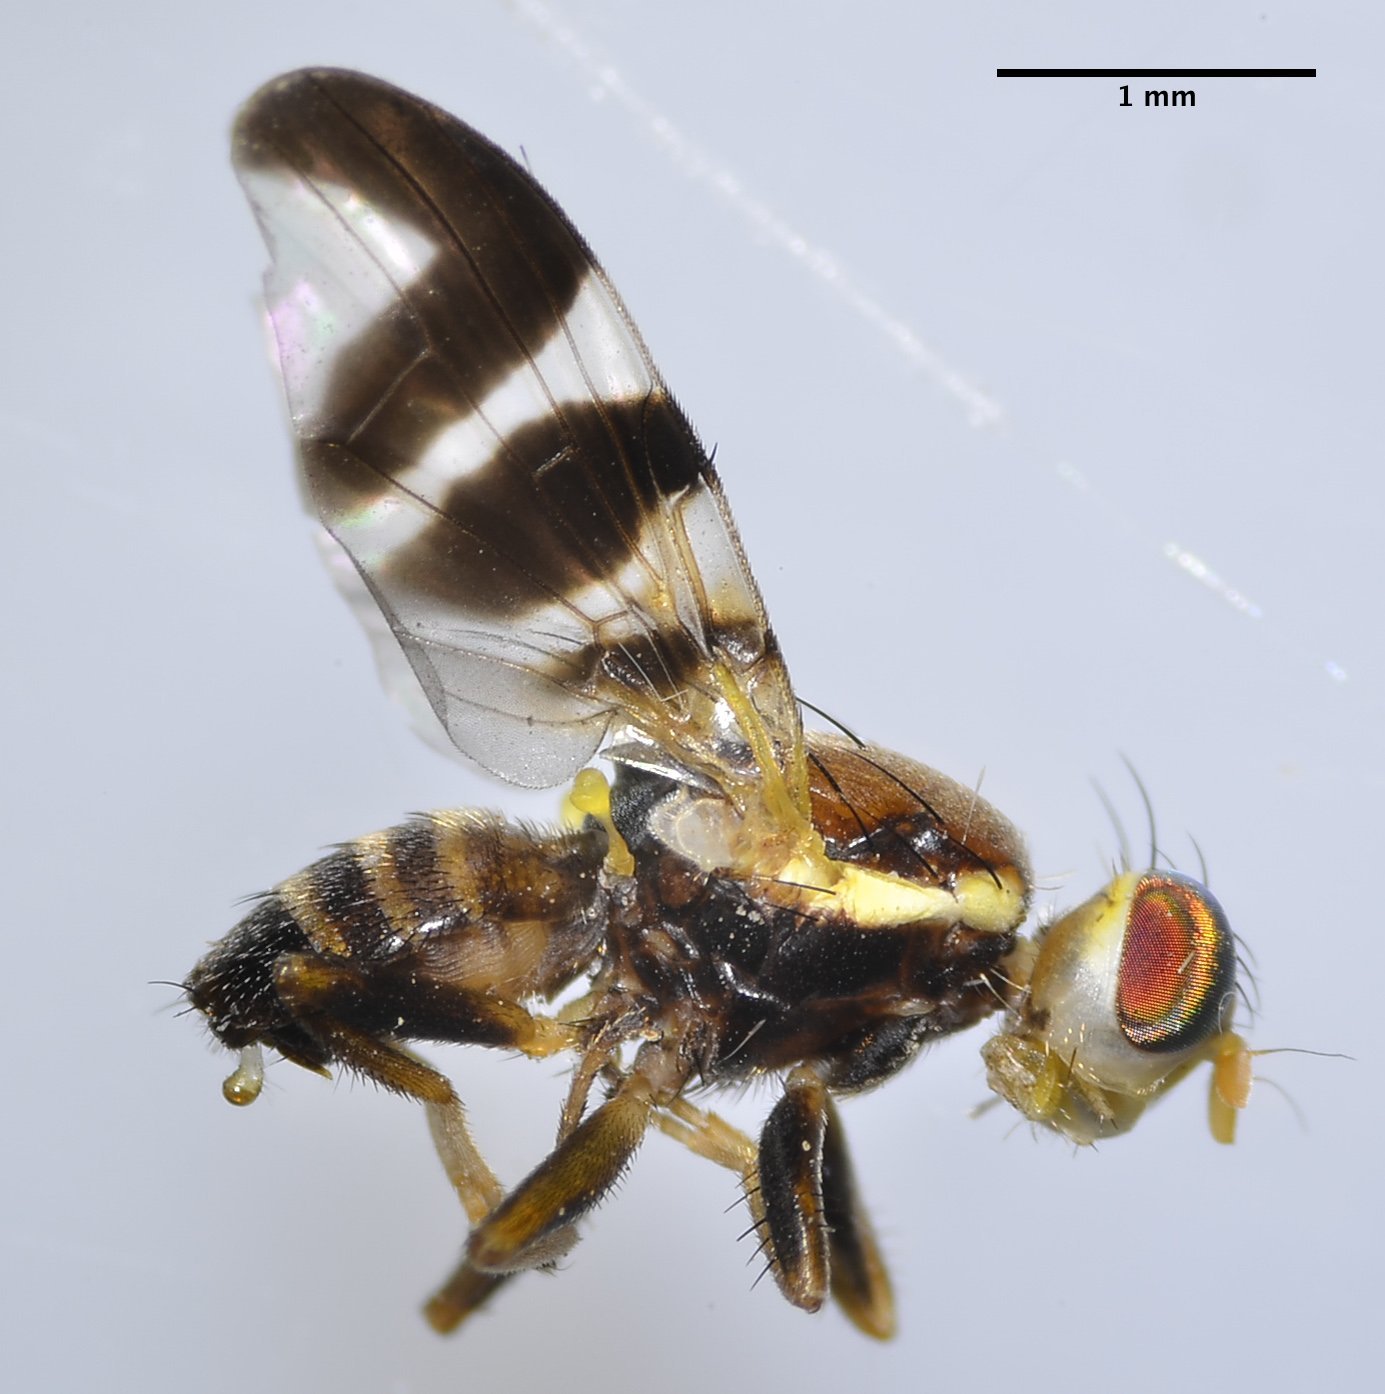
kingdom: Animalia
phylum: Arthropoda
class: Insecta
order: Diptera
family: Tephritidae
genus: Rhagoletis
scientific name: Rhagoletis completa
